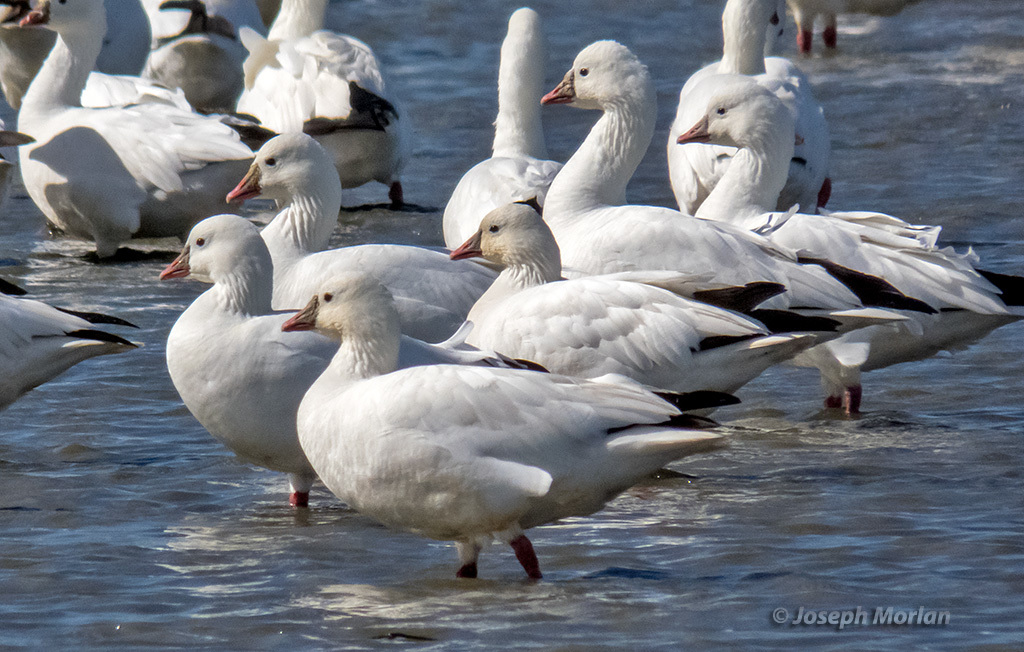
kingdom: Animalia
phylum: Chordata
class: Aves
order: Anseriformes
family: Anatidae
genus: Anser
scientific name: Anser rossii
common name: Ross's goose
